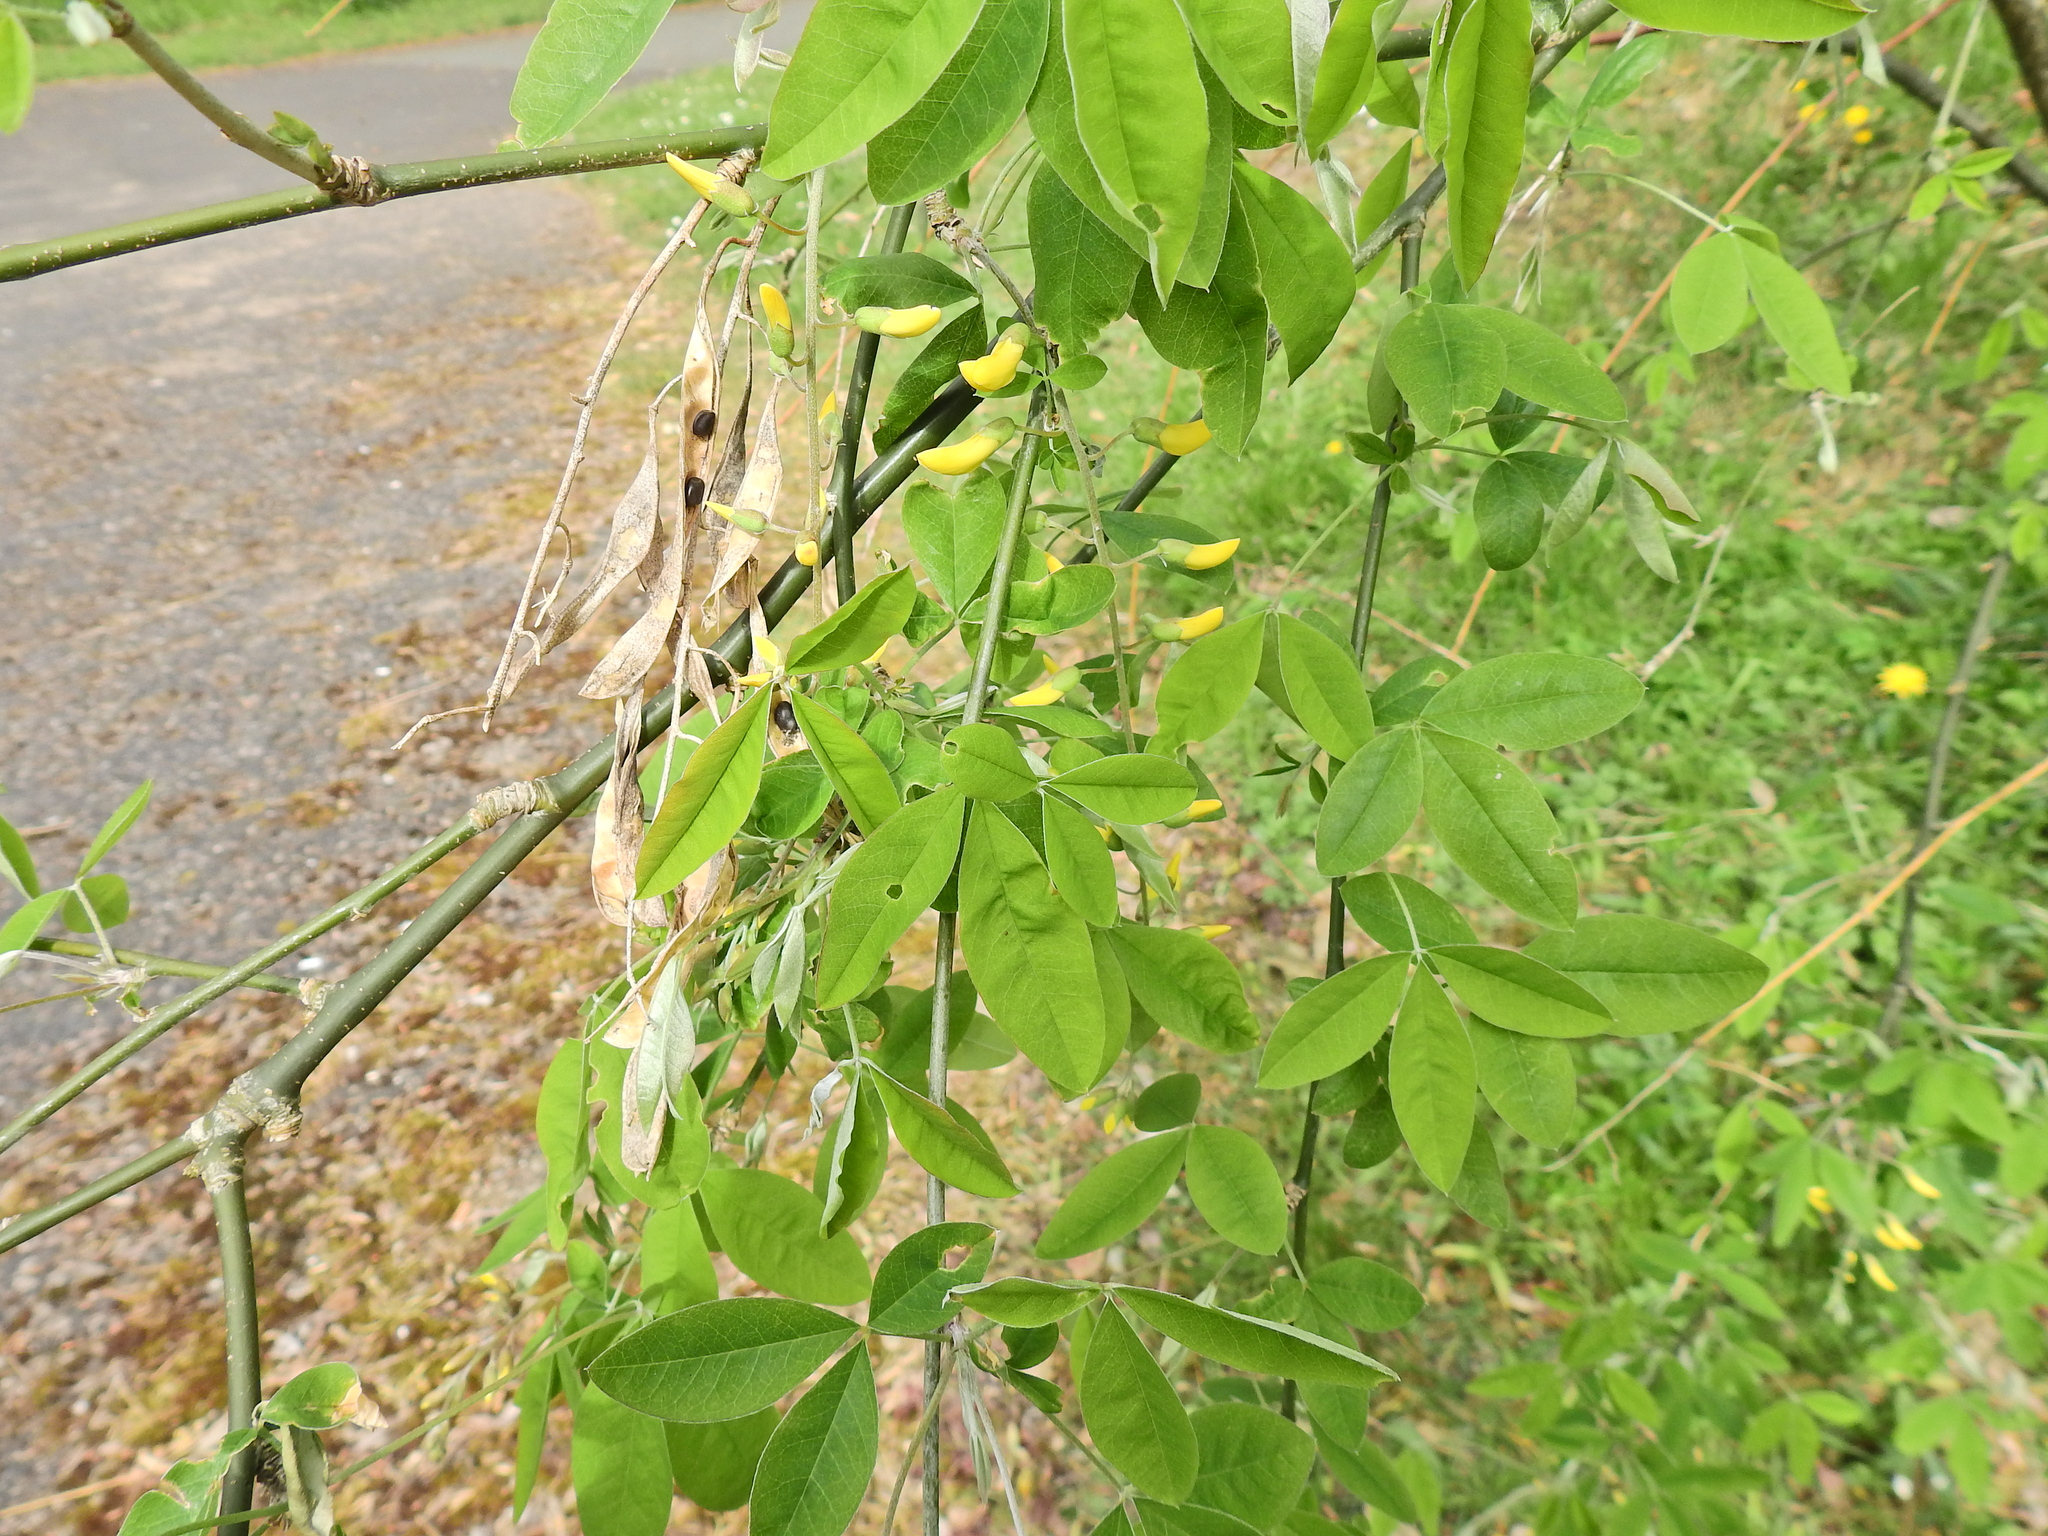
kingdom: Plantae
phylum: Tracheophyta
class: Magnoliopsida
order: Fabales
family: Fabaceae
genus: Laburnum
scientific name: Laburnum anagyroides
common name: Laburnum
